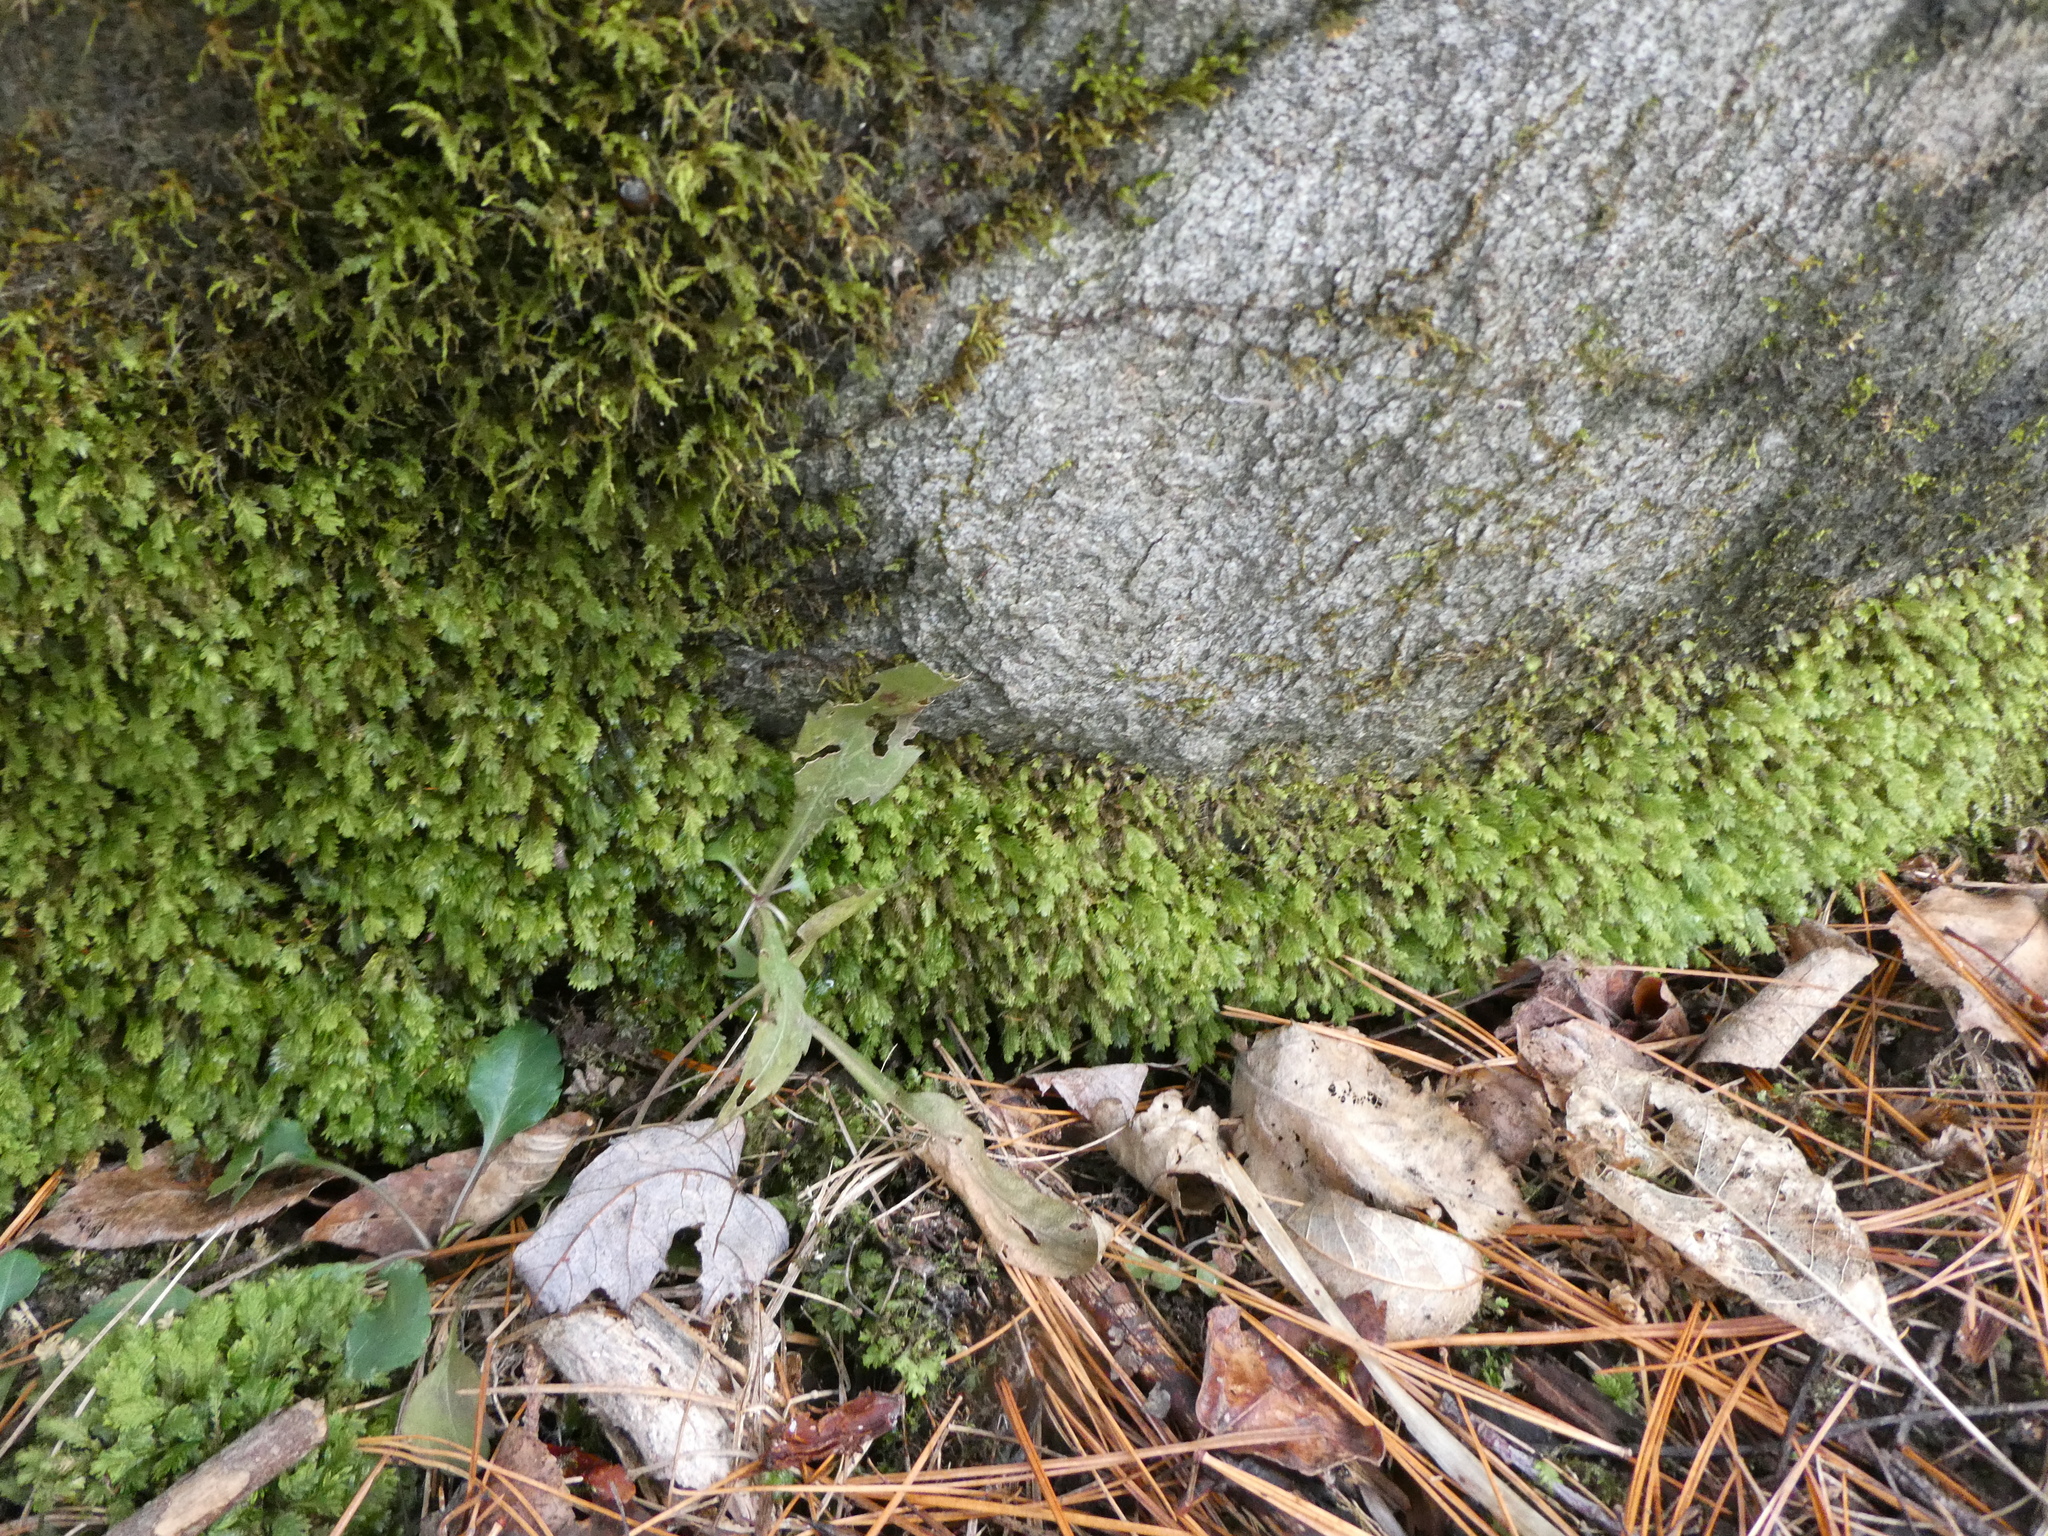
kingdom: Plantae
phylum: Bryophyta
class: Bryopsida
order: Dicranales
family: Fissidentaceae
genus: Fissidens
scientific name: Fissidens dubius
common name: Rock pocket moss
